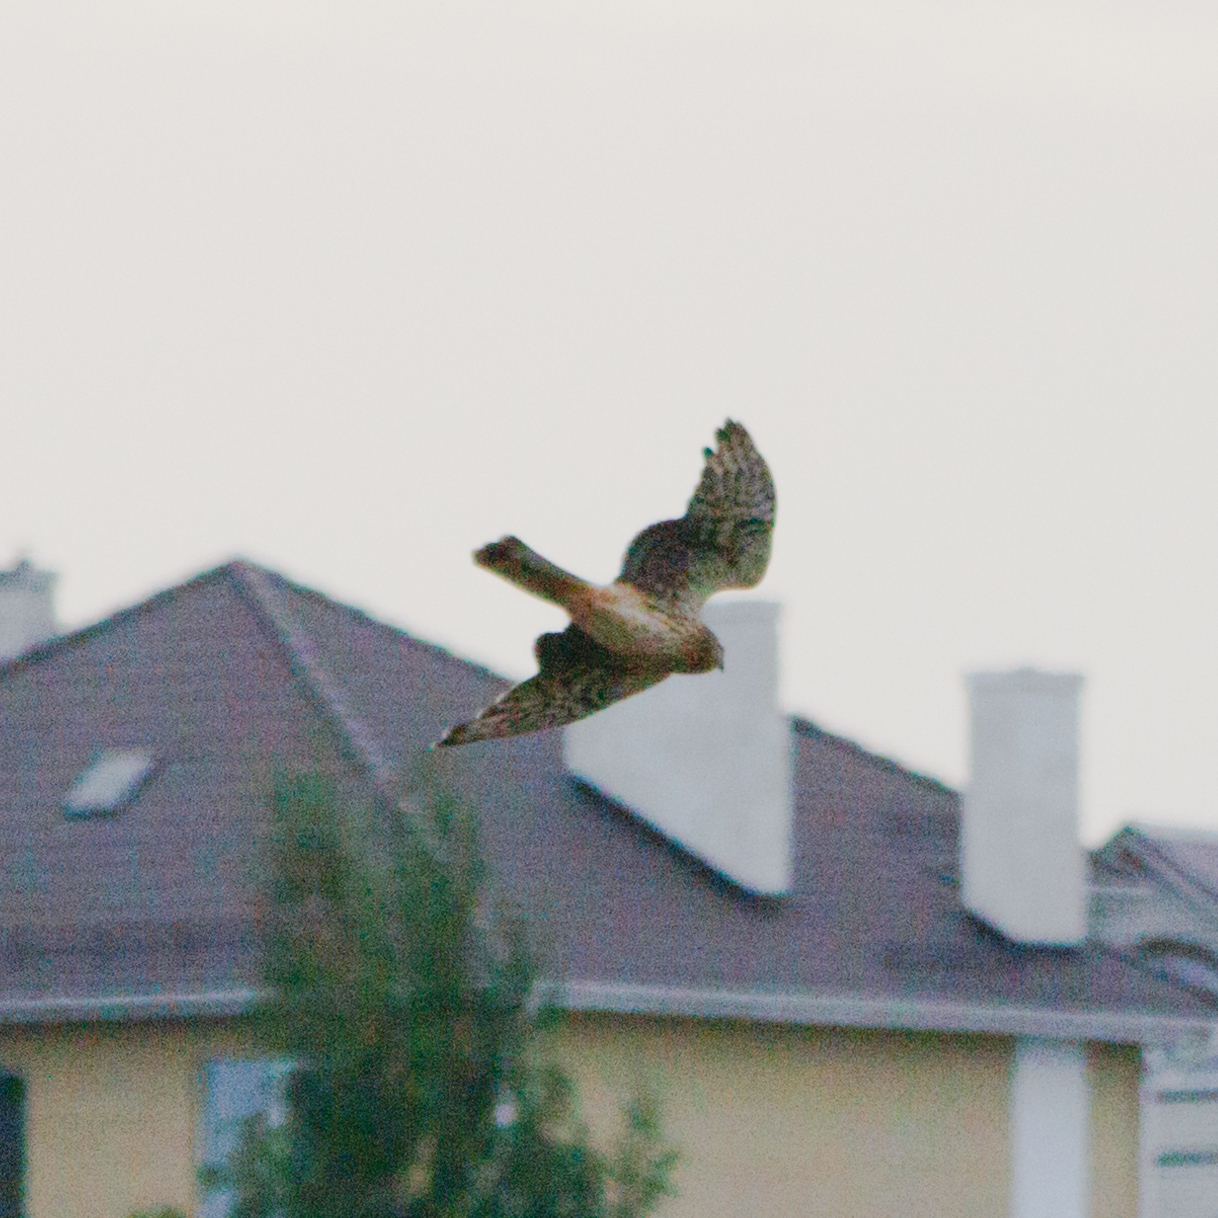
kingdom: Animalia
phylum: Chordata
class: Aves
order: Accipitriformes
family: Accipitridae
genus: Circus
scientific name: Circus cyaneus
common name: Hen harrier
